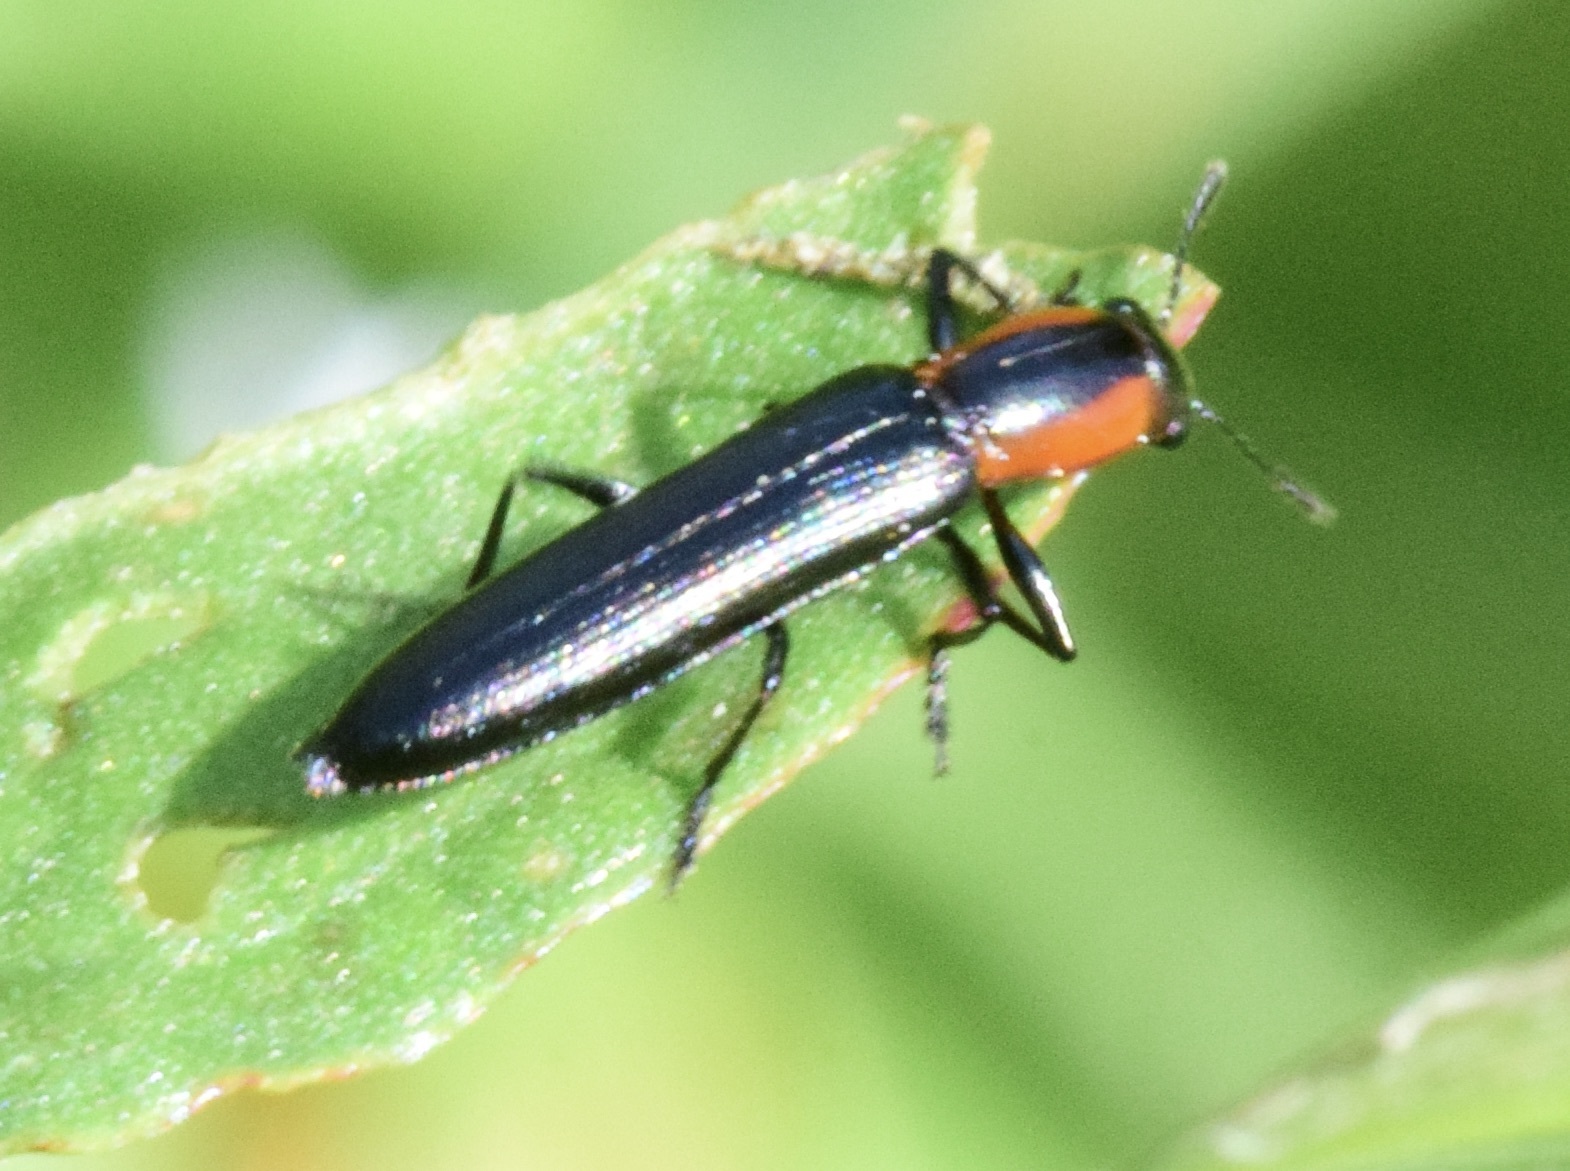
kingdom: Animalia
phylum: Arthropoda
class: Insecta
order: Coleoptera
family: Erotylidae
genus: Acropteroxys
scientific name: Acropteroxys gracilis
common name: Slender lizard beetle
